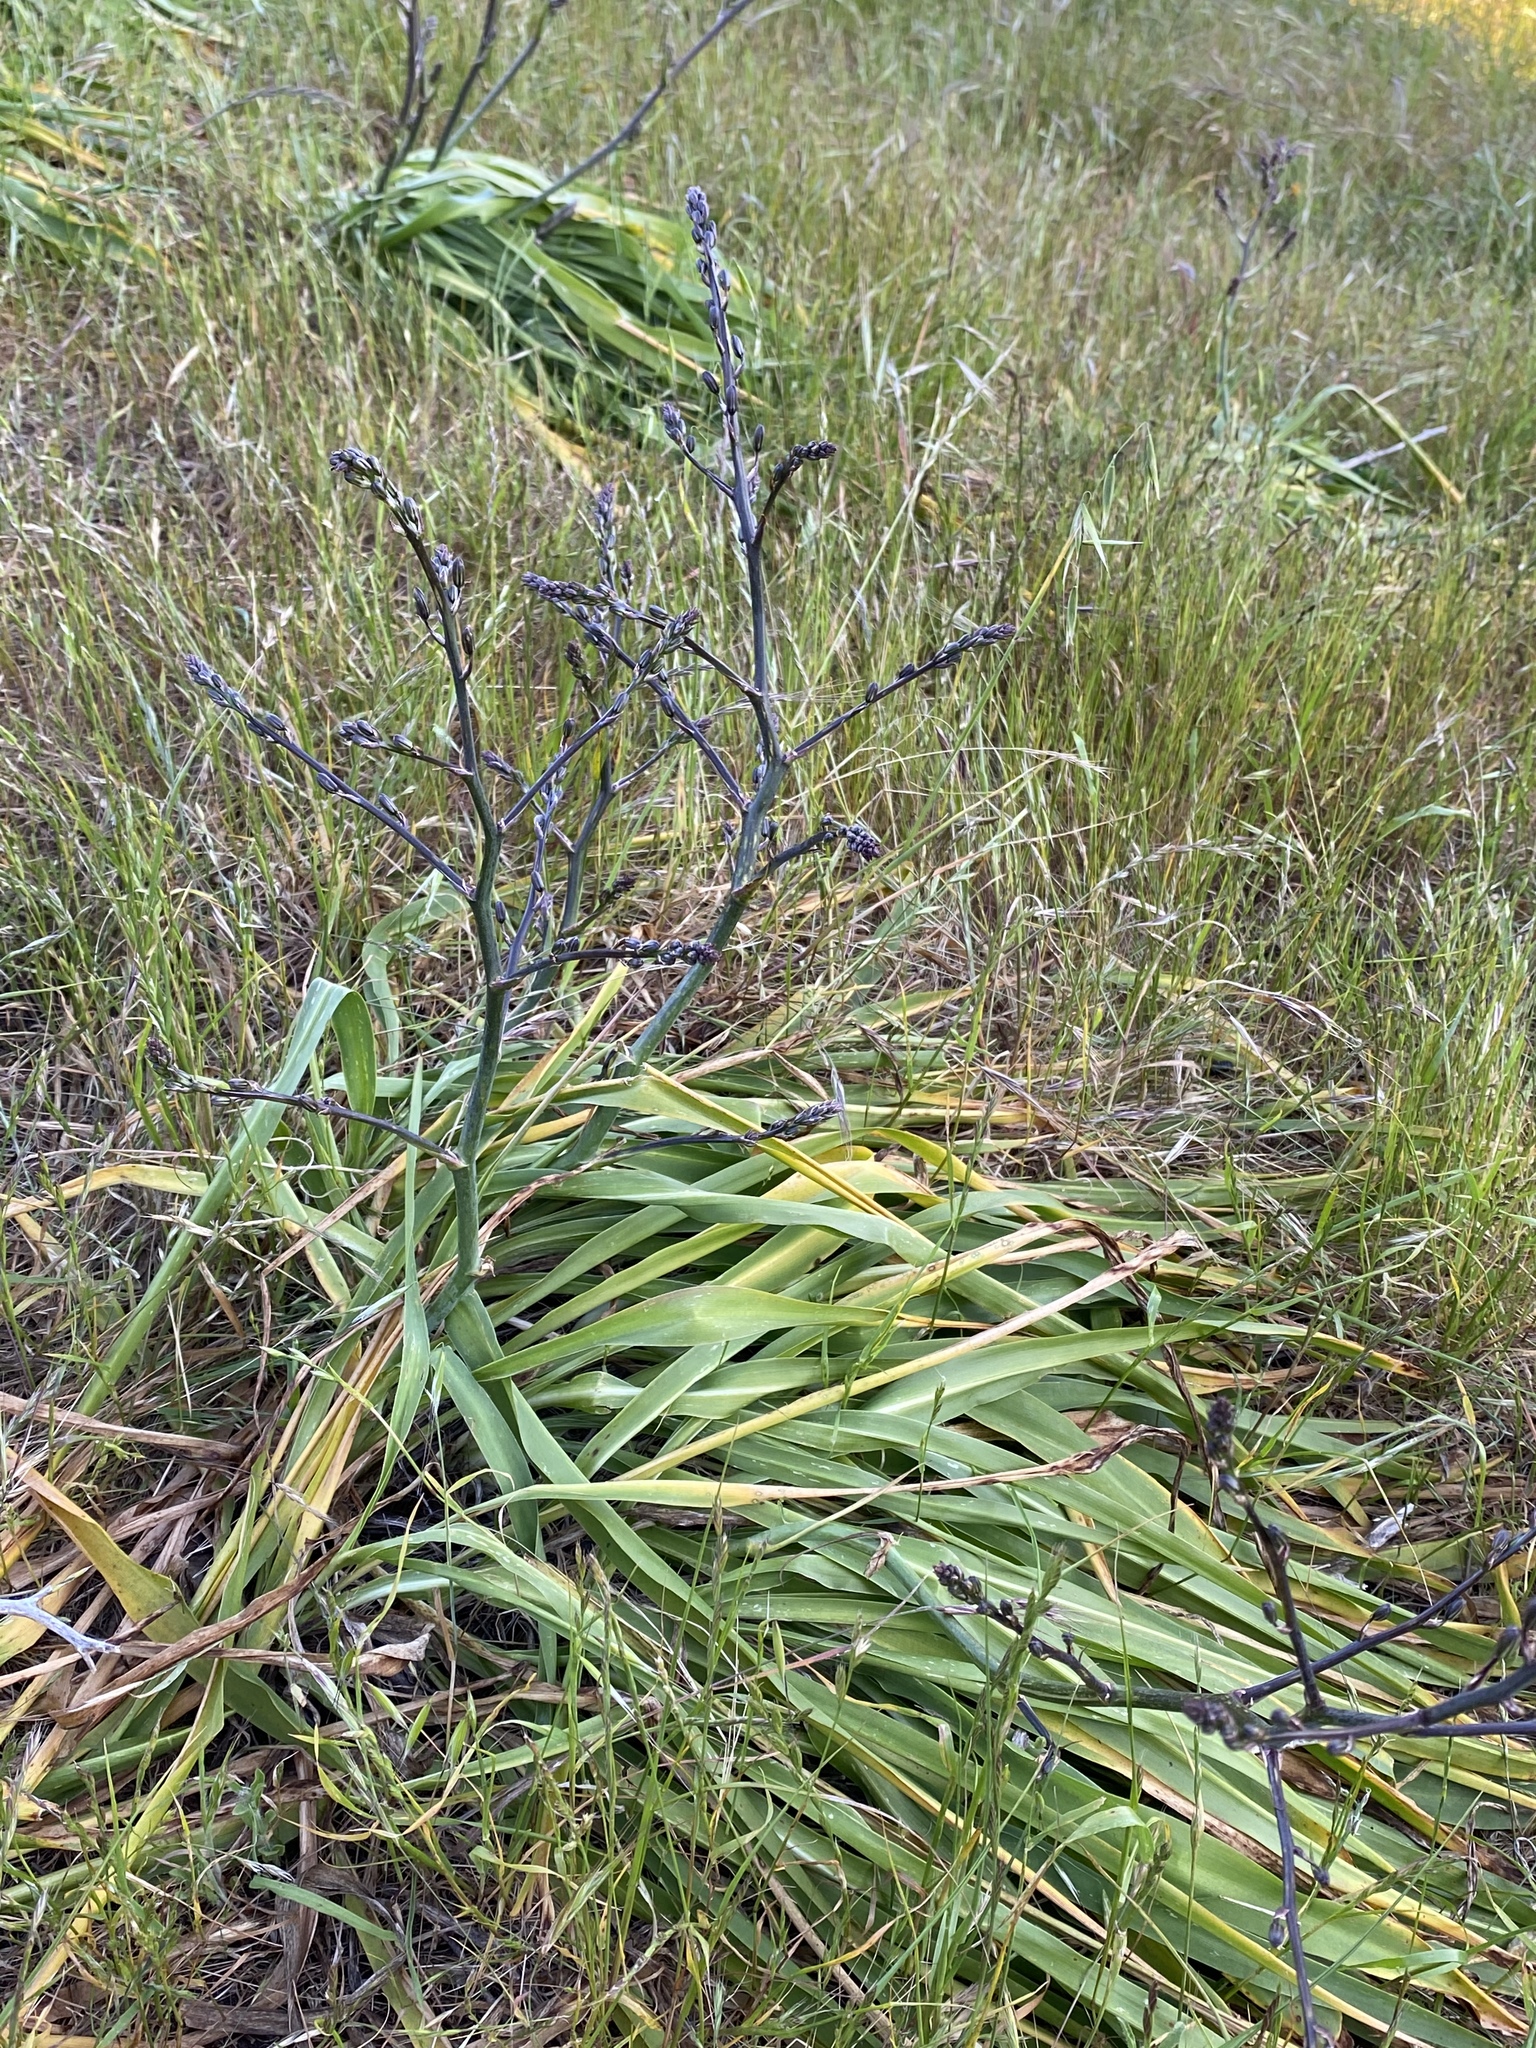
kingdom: Plantae
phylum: Tracheophyta
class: Liliopsida
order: Asparagales
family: Asparagaceae
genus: Chlorogalum
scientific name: Chlorogalum pomeridianum
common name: Amole
